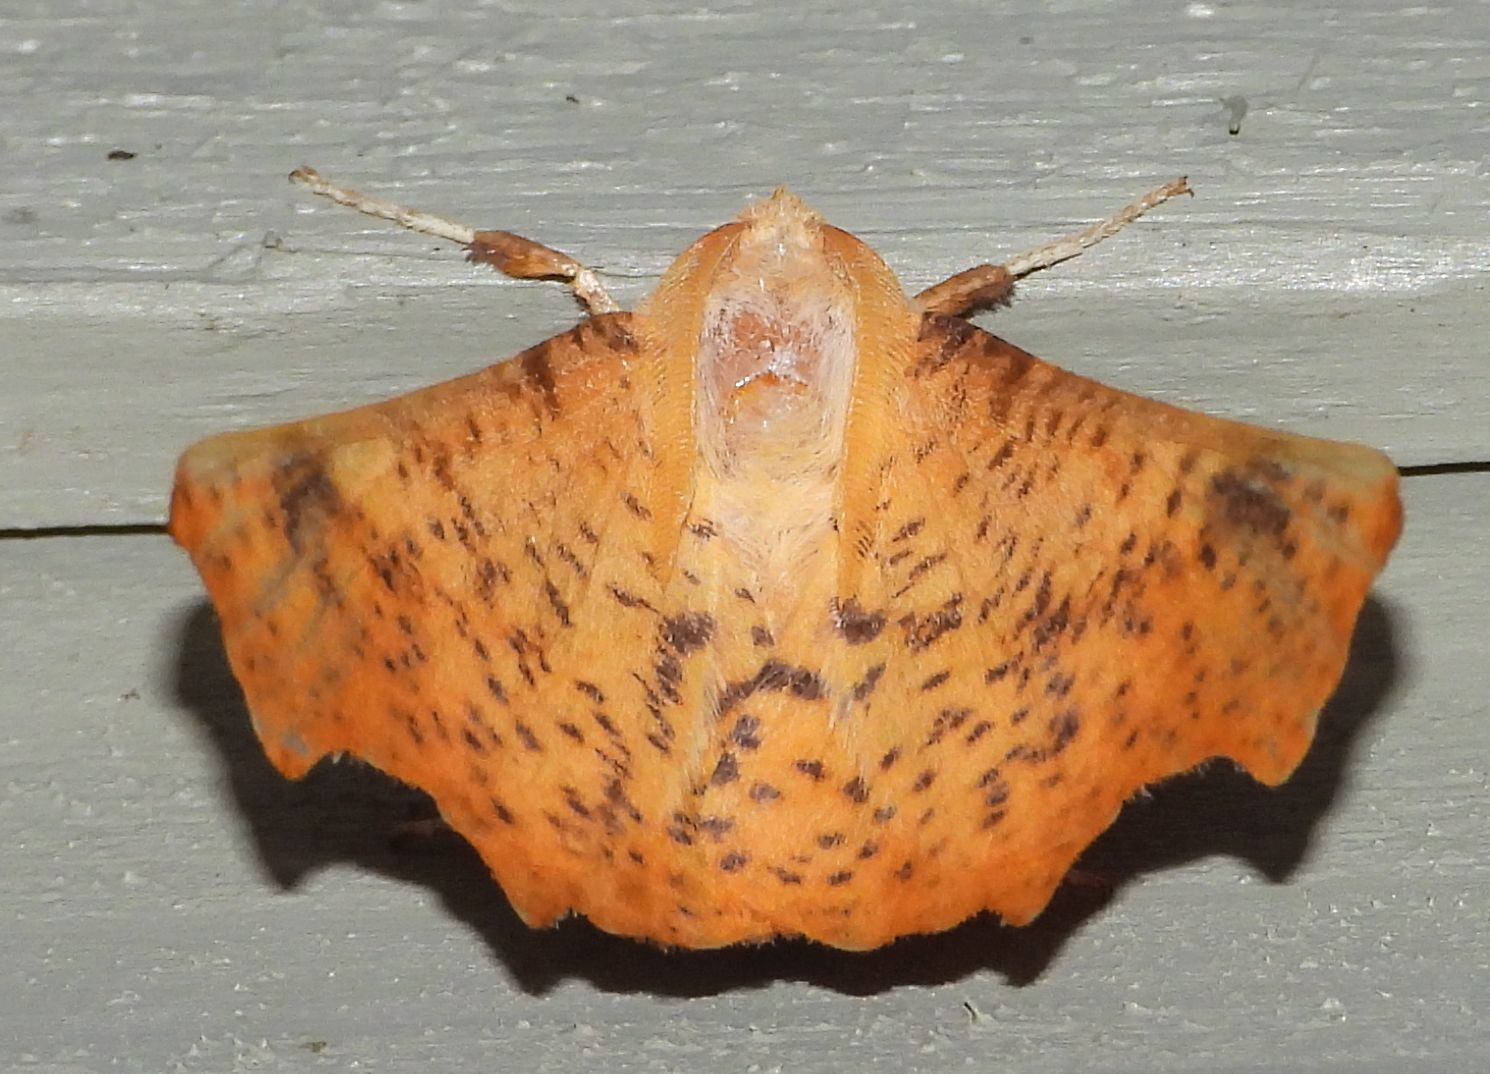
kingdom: Animalia
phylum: Arthropoda
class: Insecta
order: Lepidoptera
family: Geometridae
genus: Ennomos
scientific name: Ennomos magnaria
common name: Maple spanworm
